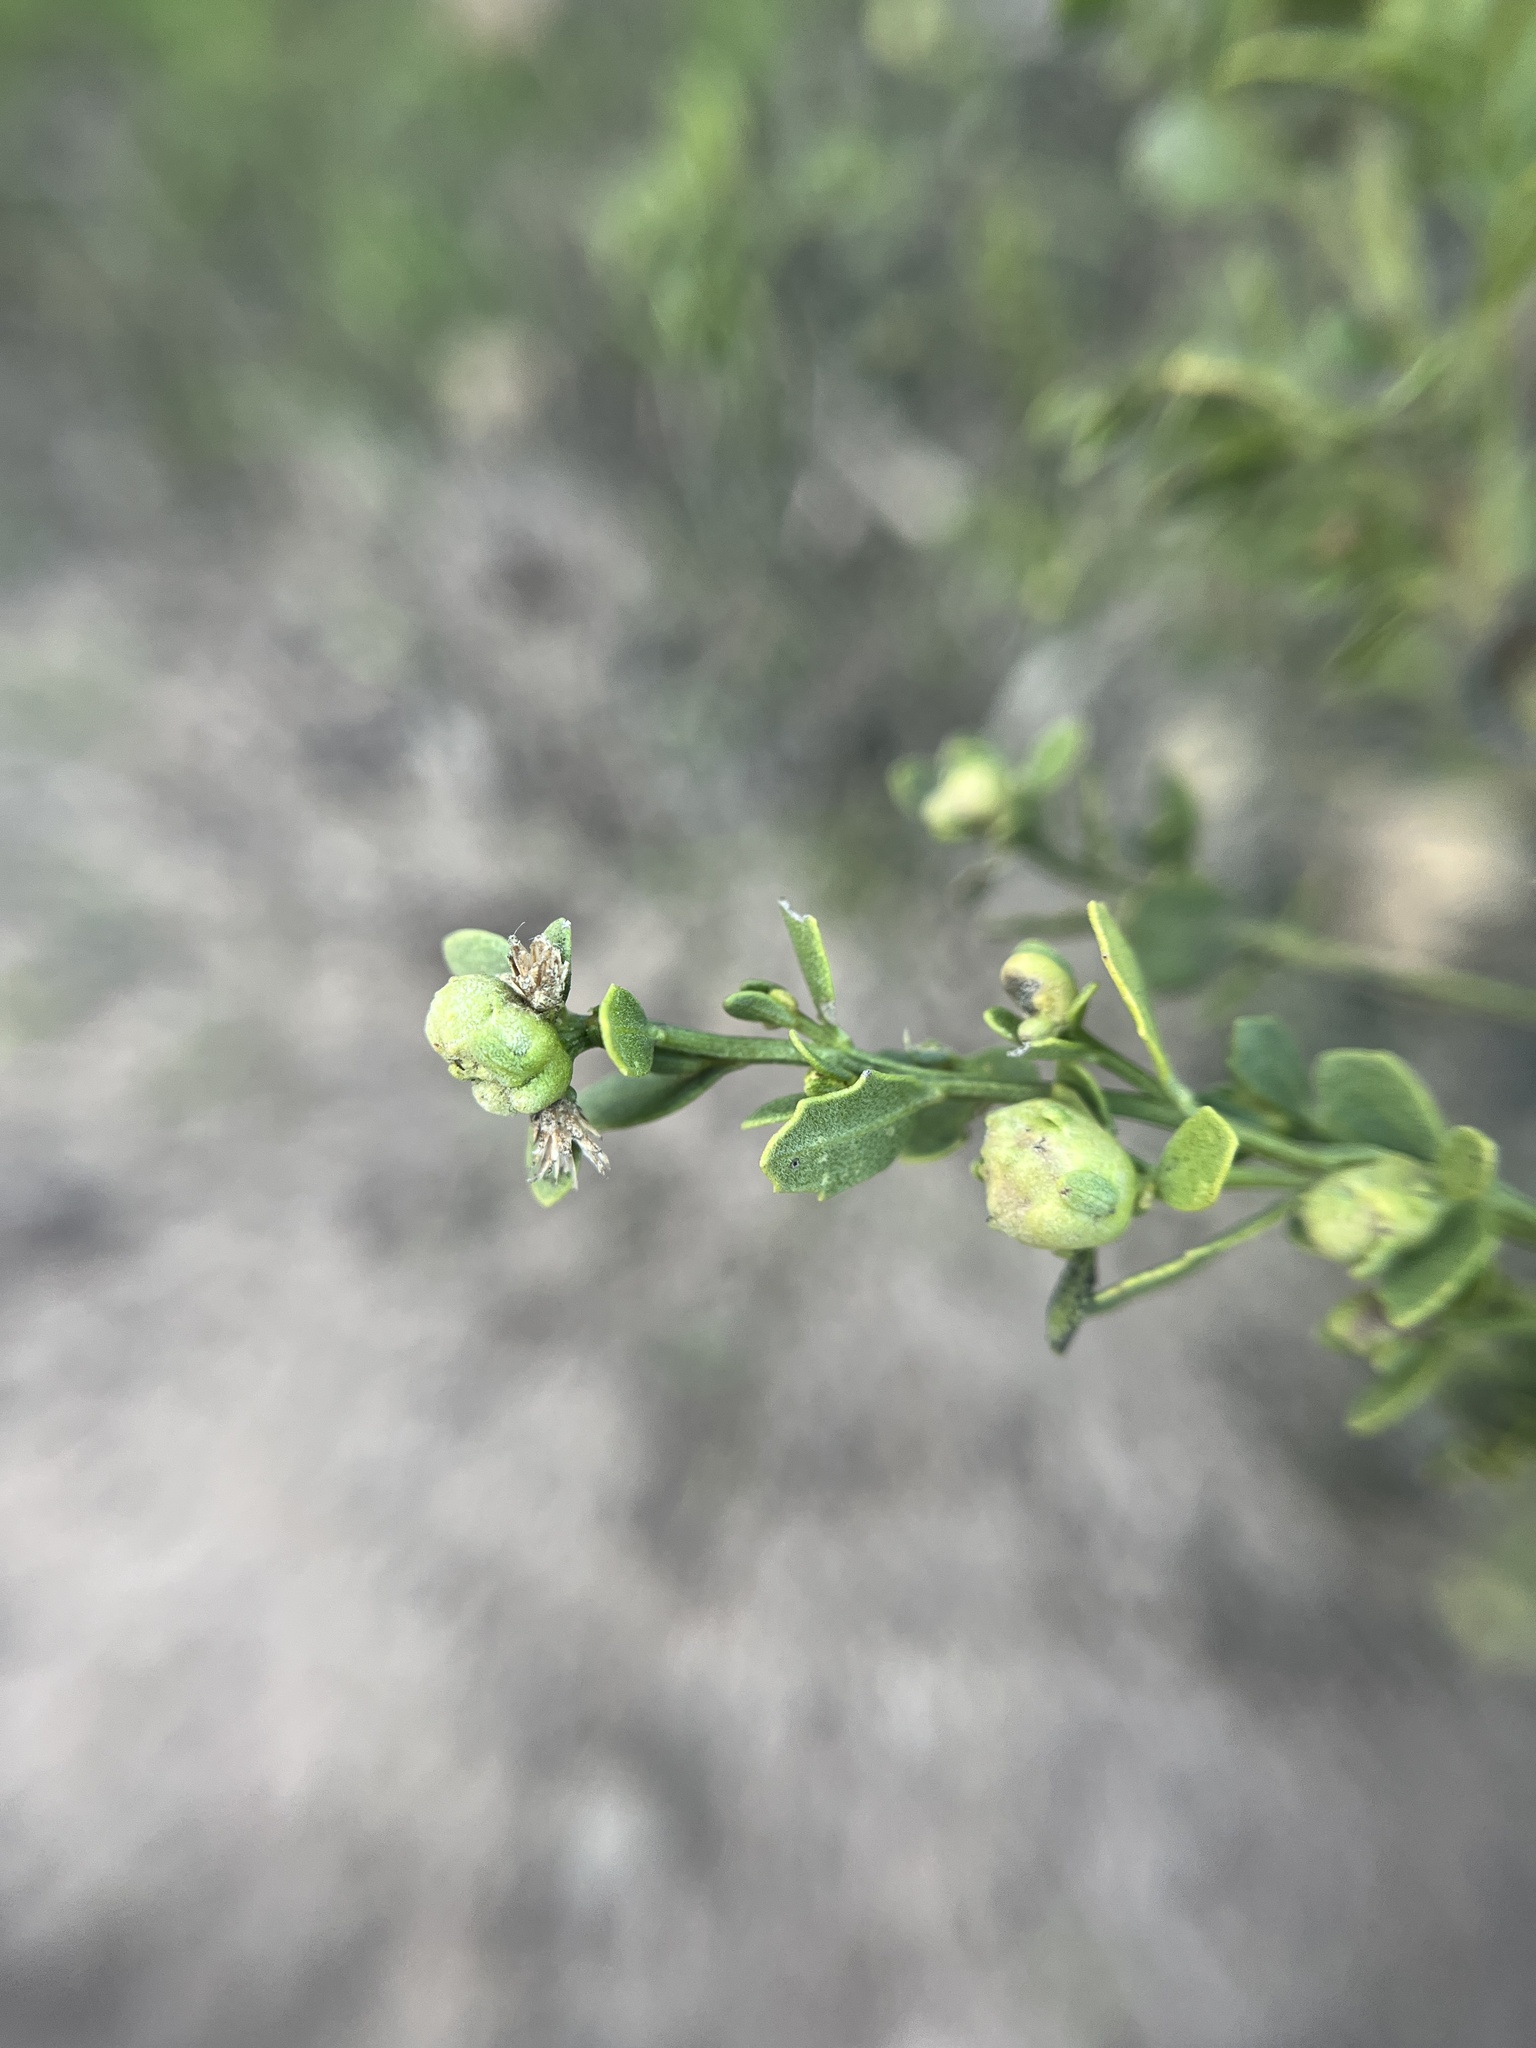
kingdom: Animalia
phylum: Arthropoda
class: Insecta
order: Diptera
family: Cecidomyiidae
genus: Rhopalomyia
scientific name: Rhopalomyia californica
